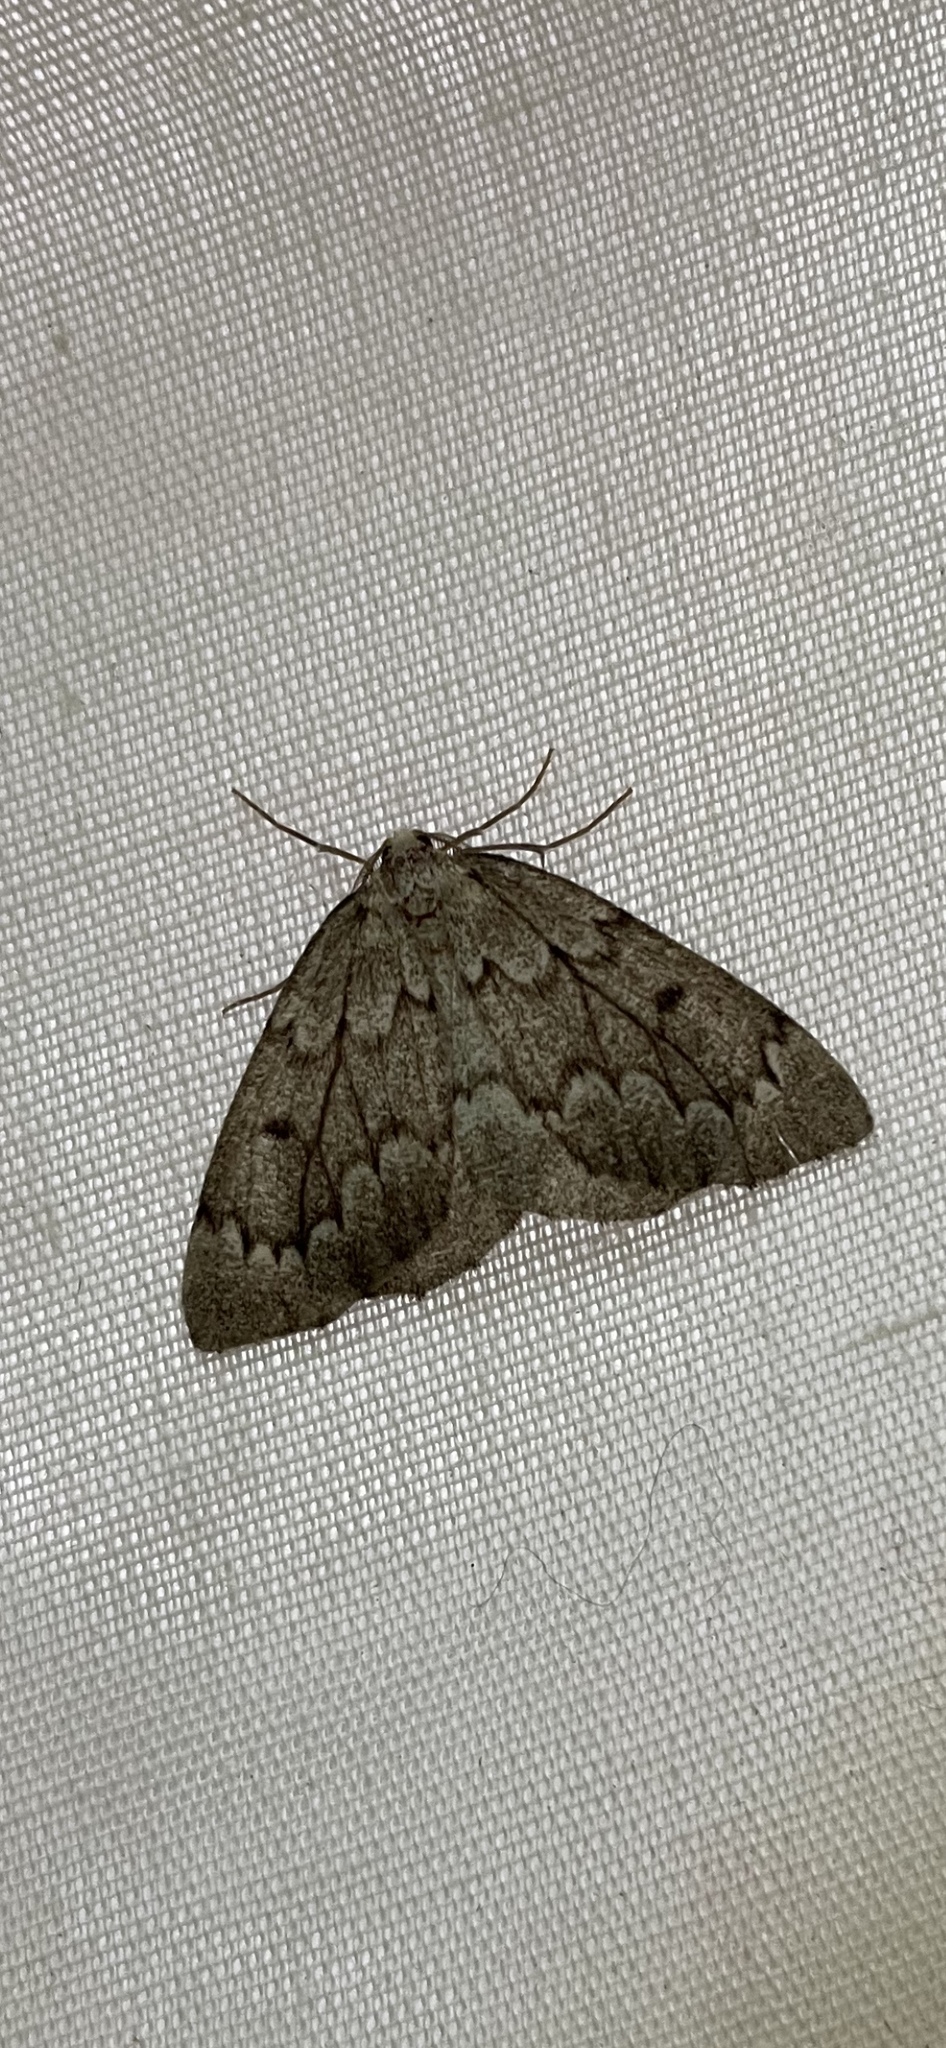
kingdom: Animalia
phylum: Arthropoda
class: Insecta
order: Lepidoptera
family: Geometridae
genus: Nepytia
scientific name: Nepytia pellucidaria
